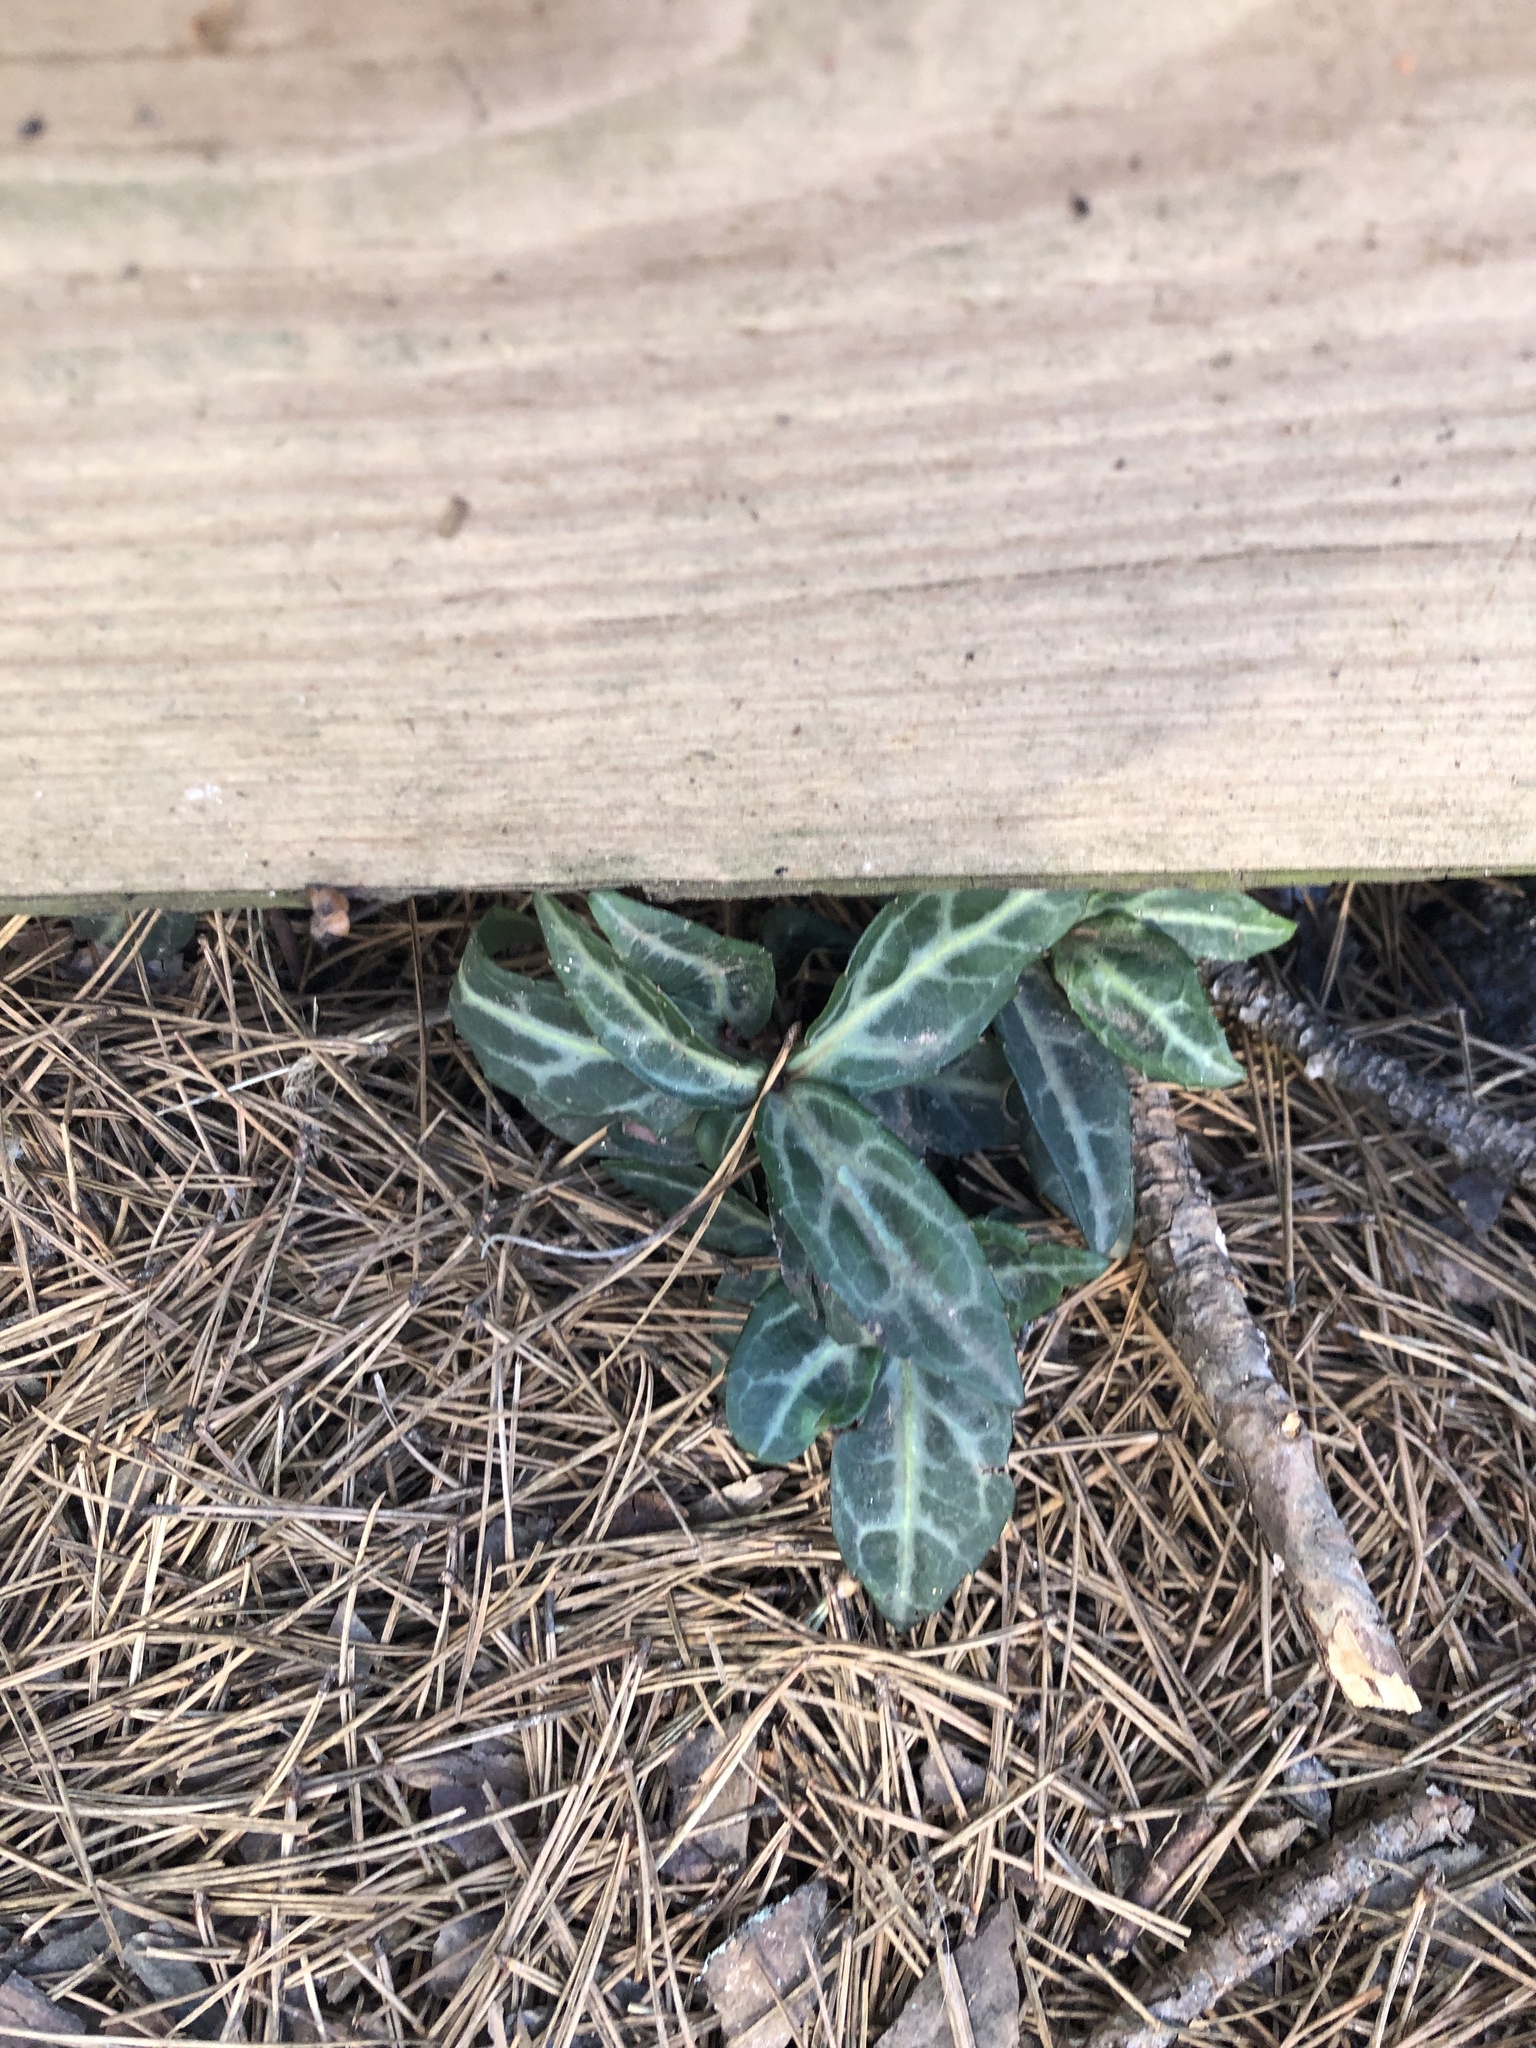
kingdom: Plantae
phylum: Tracheophyta
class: Magnoliopsida
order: Ericales
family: Ericaceae
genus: Chimaphila
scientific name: Chimaphila maculata
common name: Spotted pipsissewa
